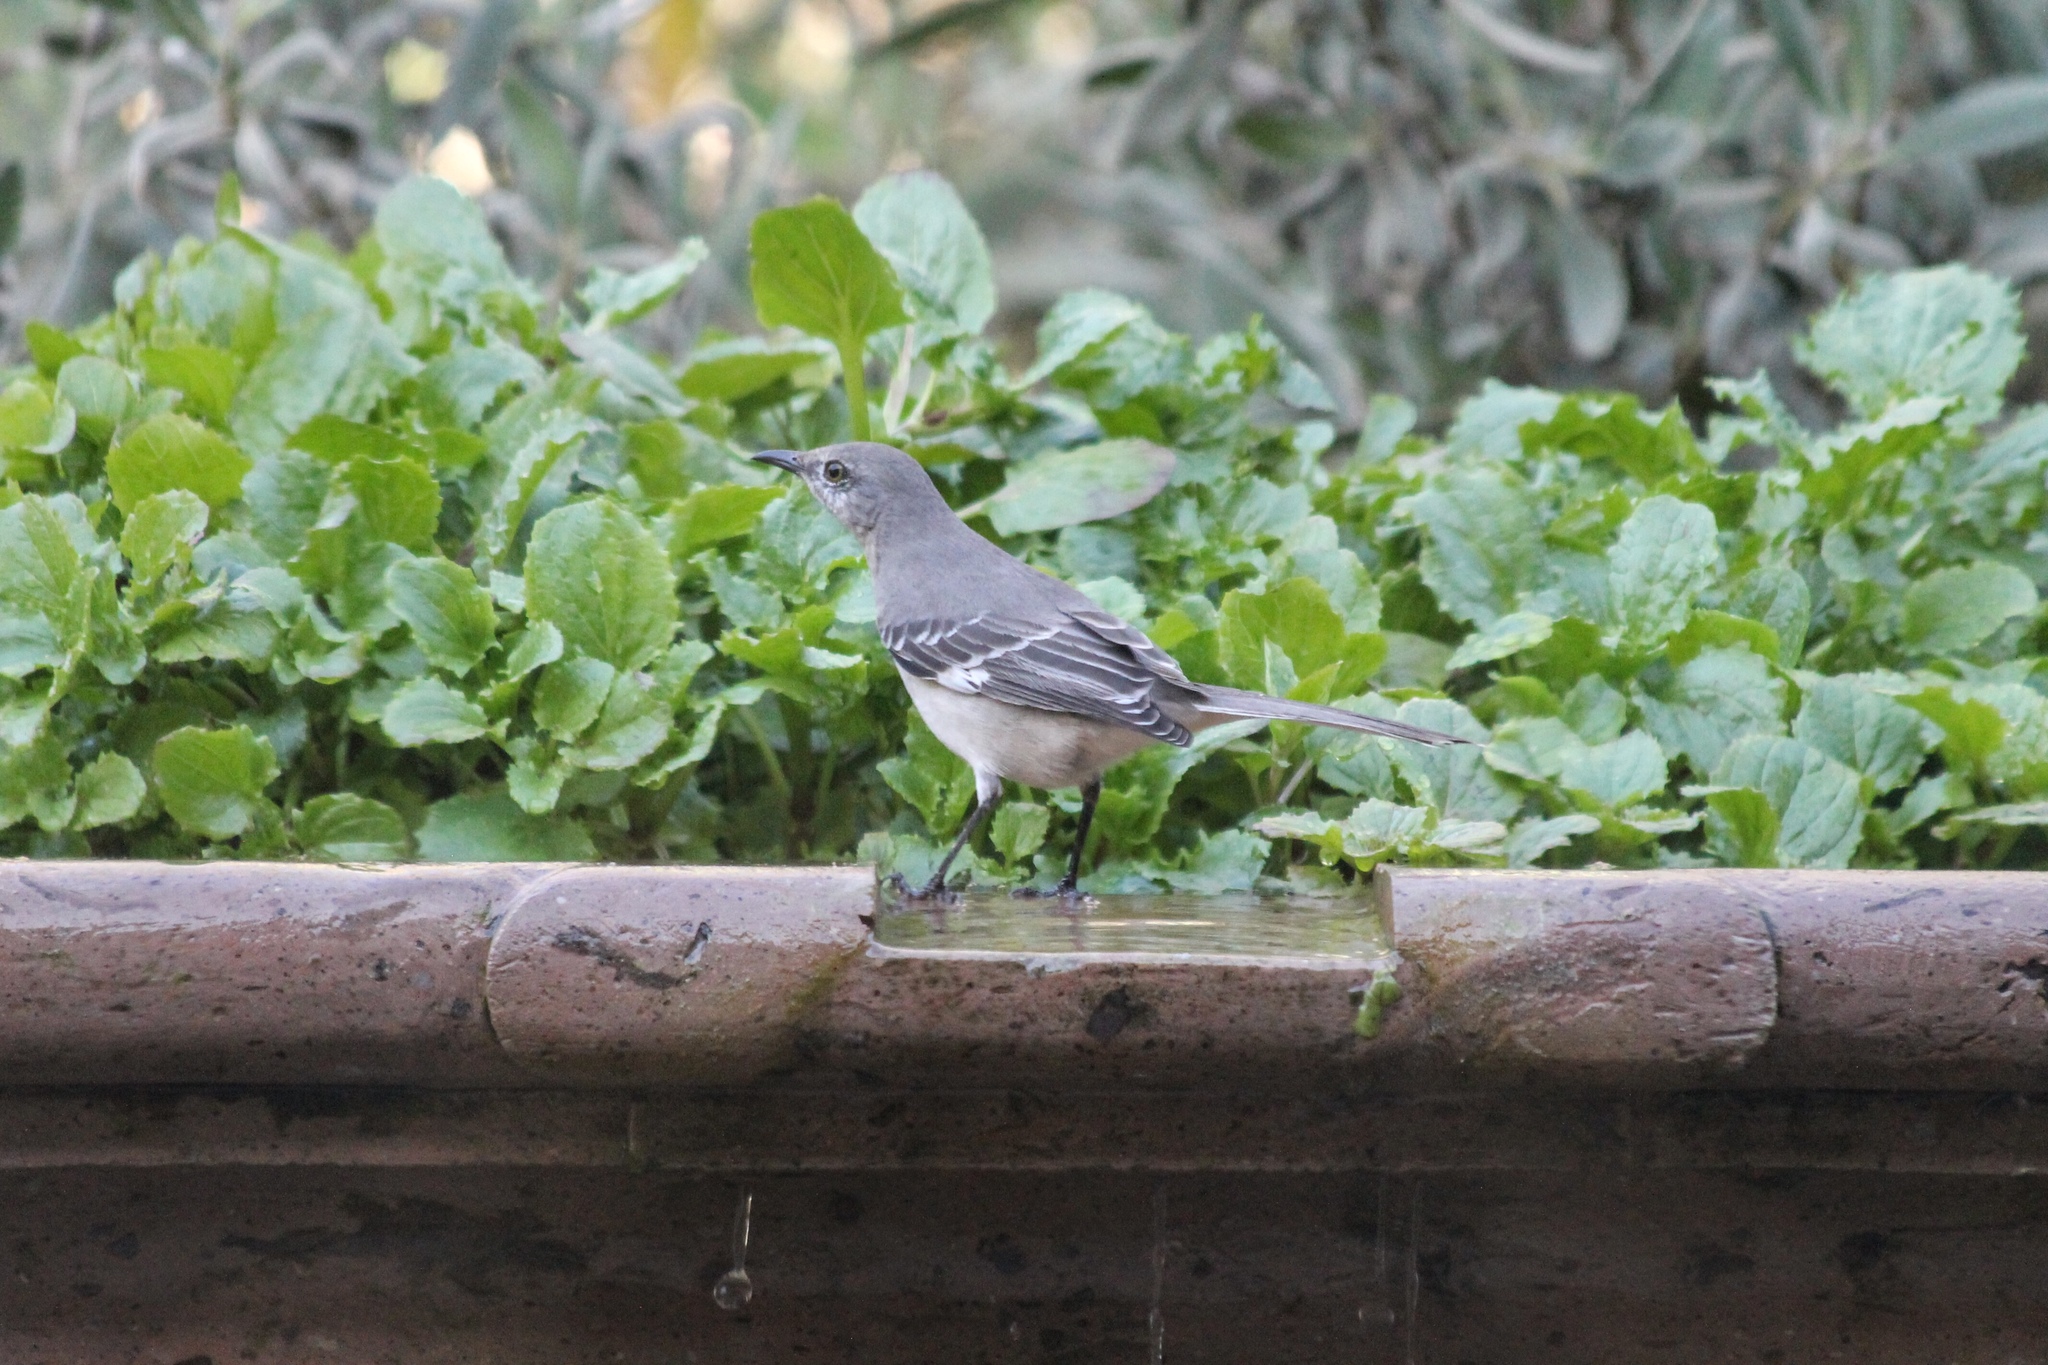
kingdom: Animalia
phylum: Chordata
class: Aves
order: Passeriformes
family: Mimidae
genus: Mimus
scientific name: Mimus polyglottos
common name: Northern mockingbird
